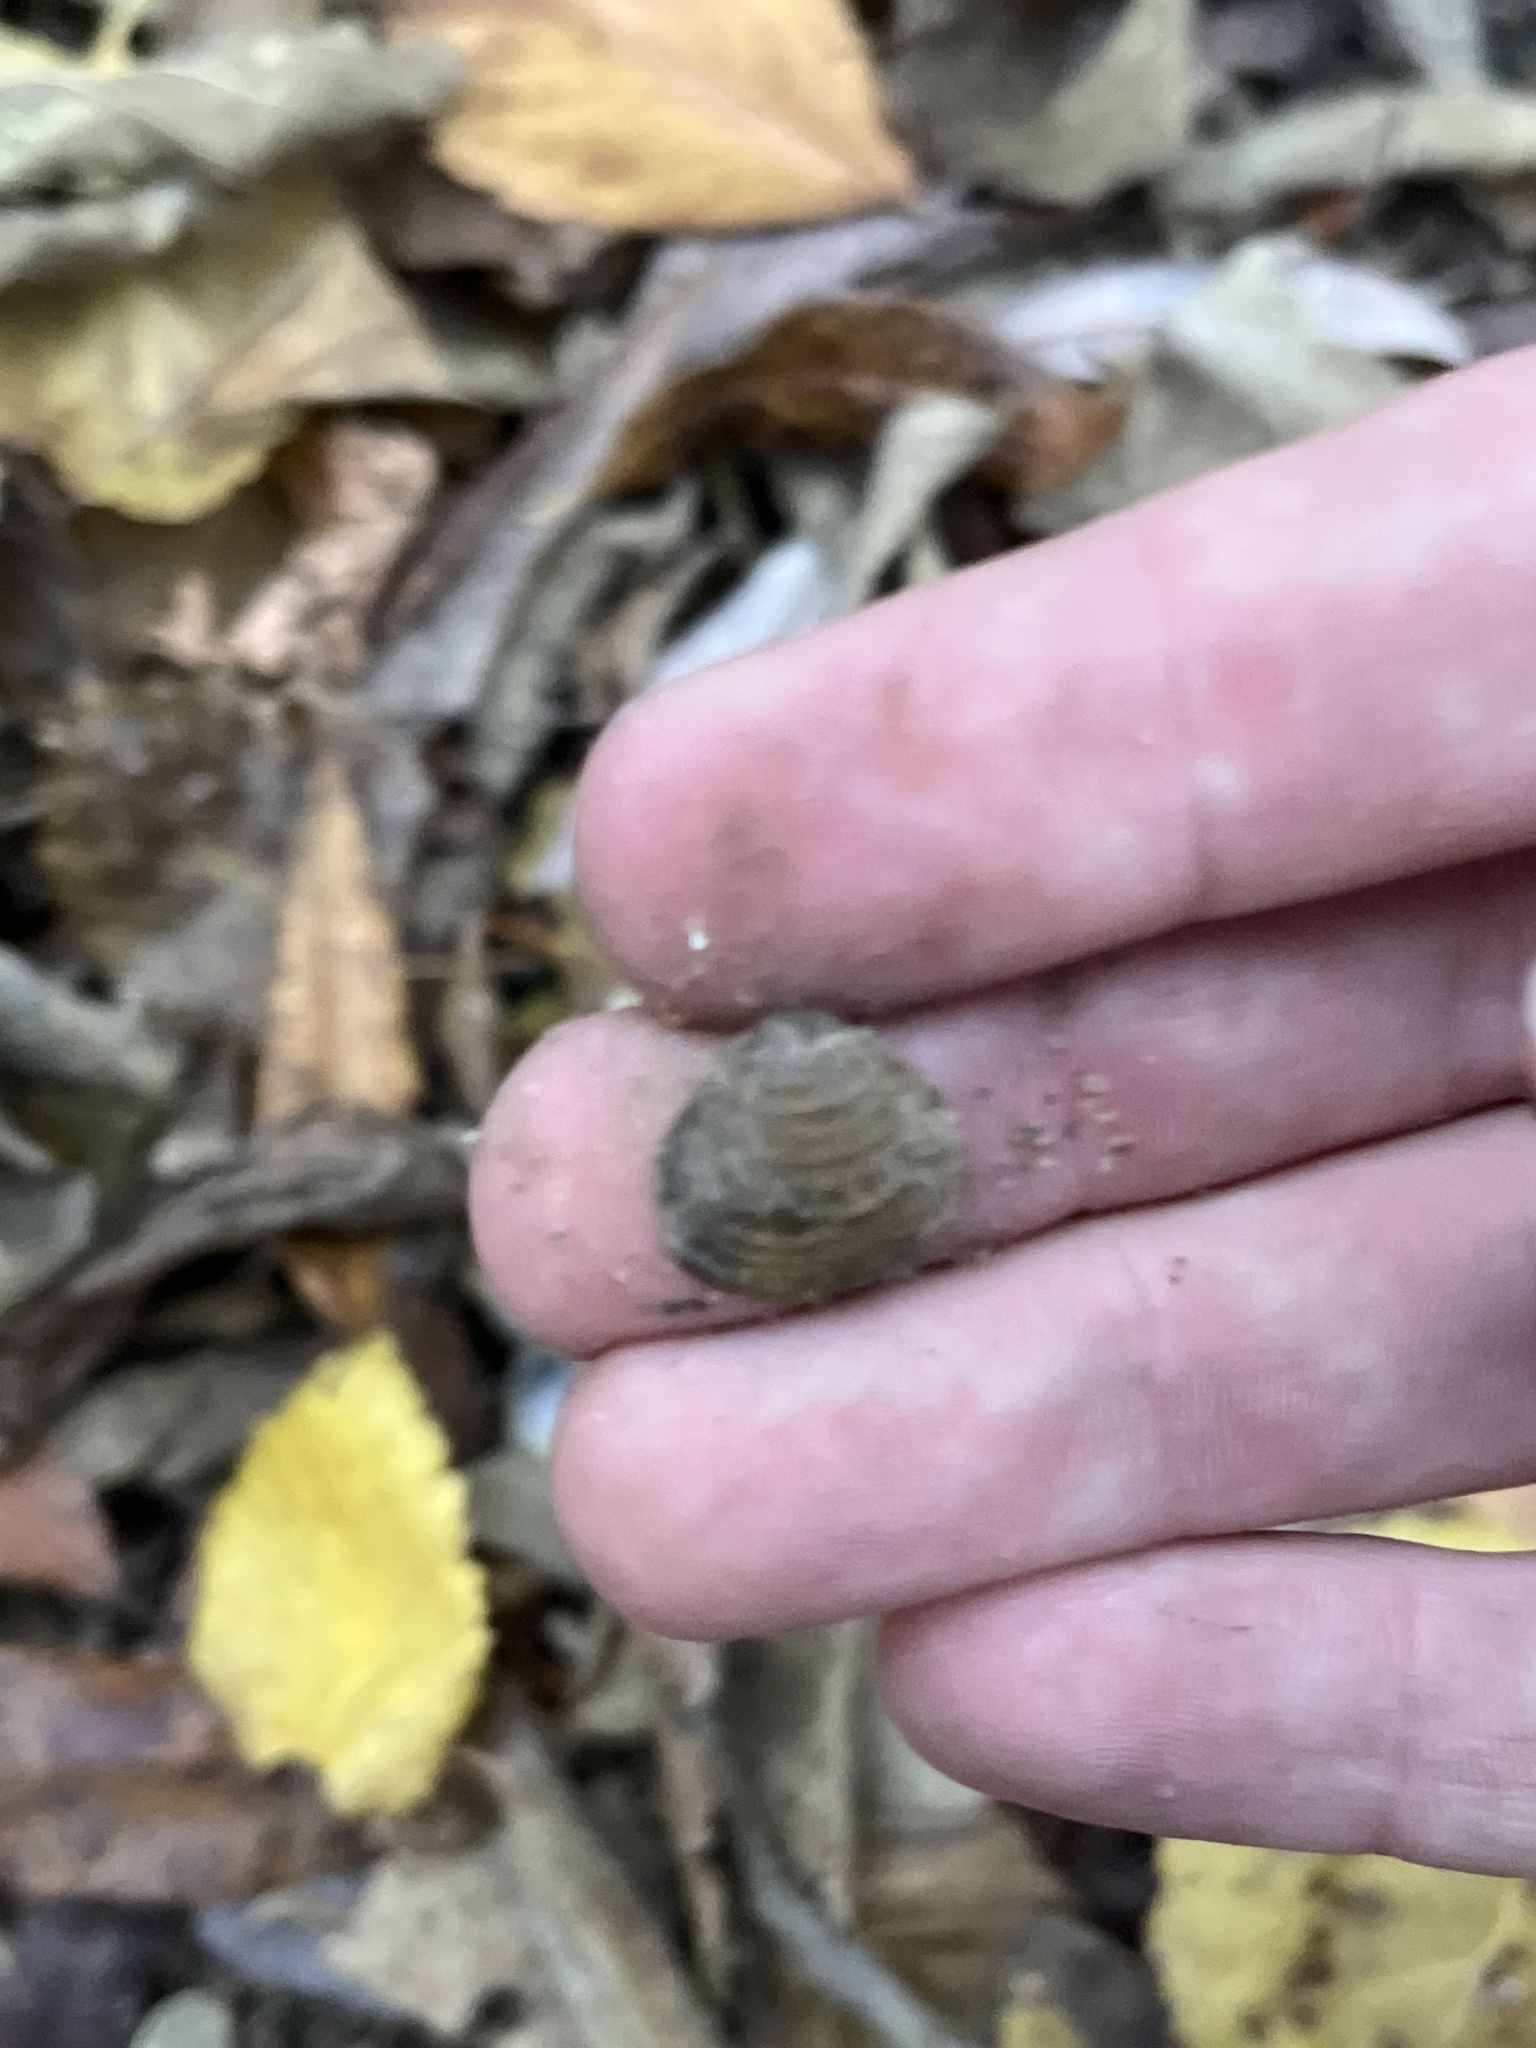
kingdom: Animalia
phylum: Mollusca
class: Bivalvia
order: Venerida
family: Cyrenidae
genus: Corbicula
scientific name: Corbicula fluminea
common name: Asian clam
